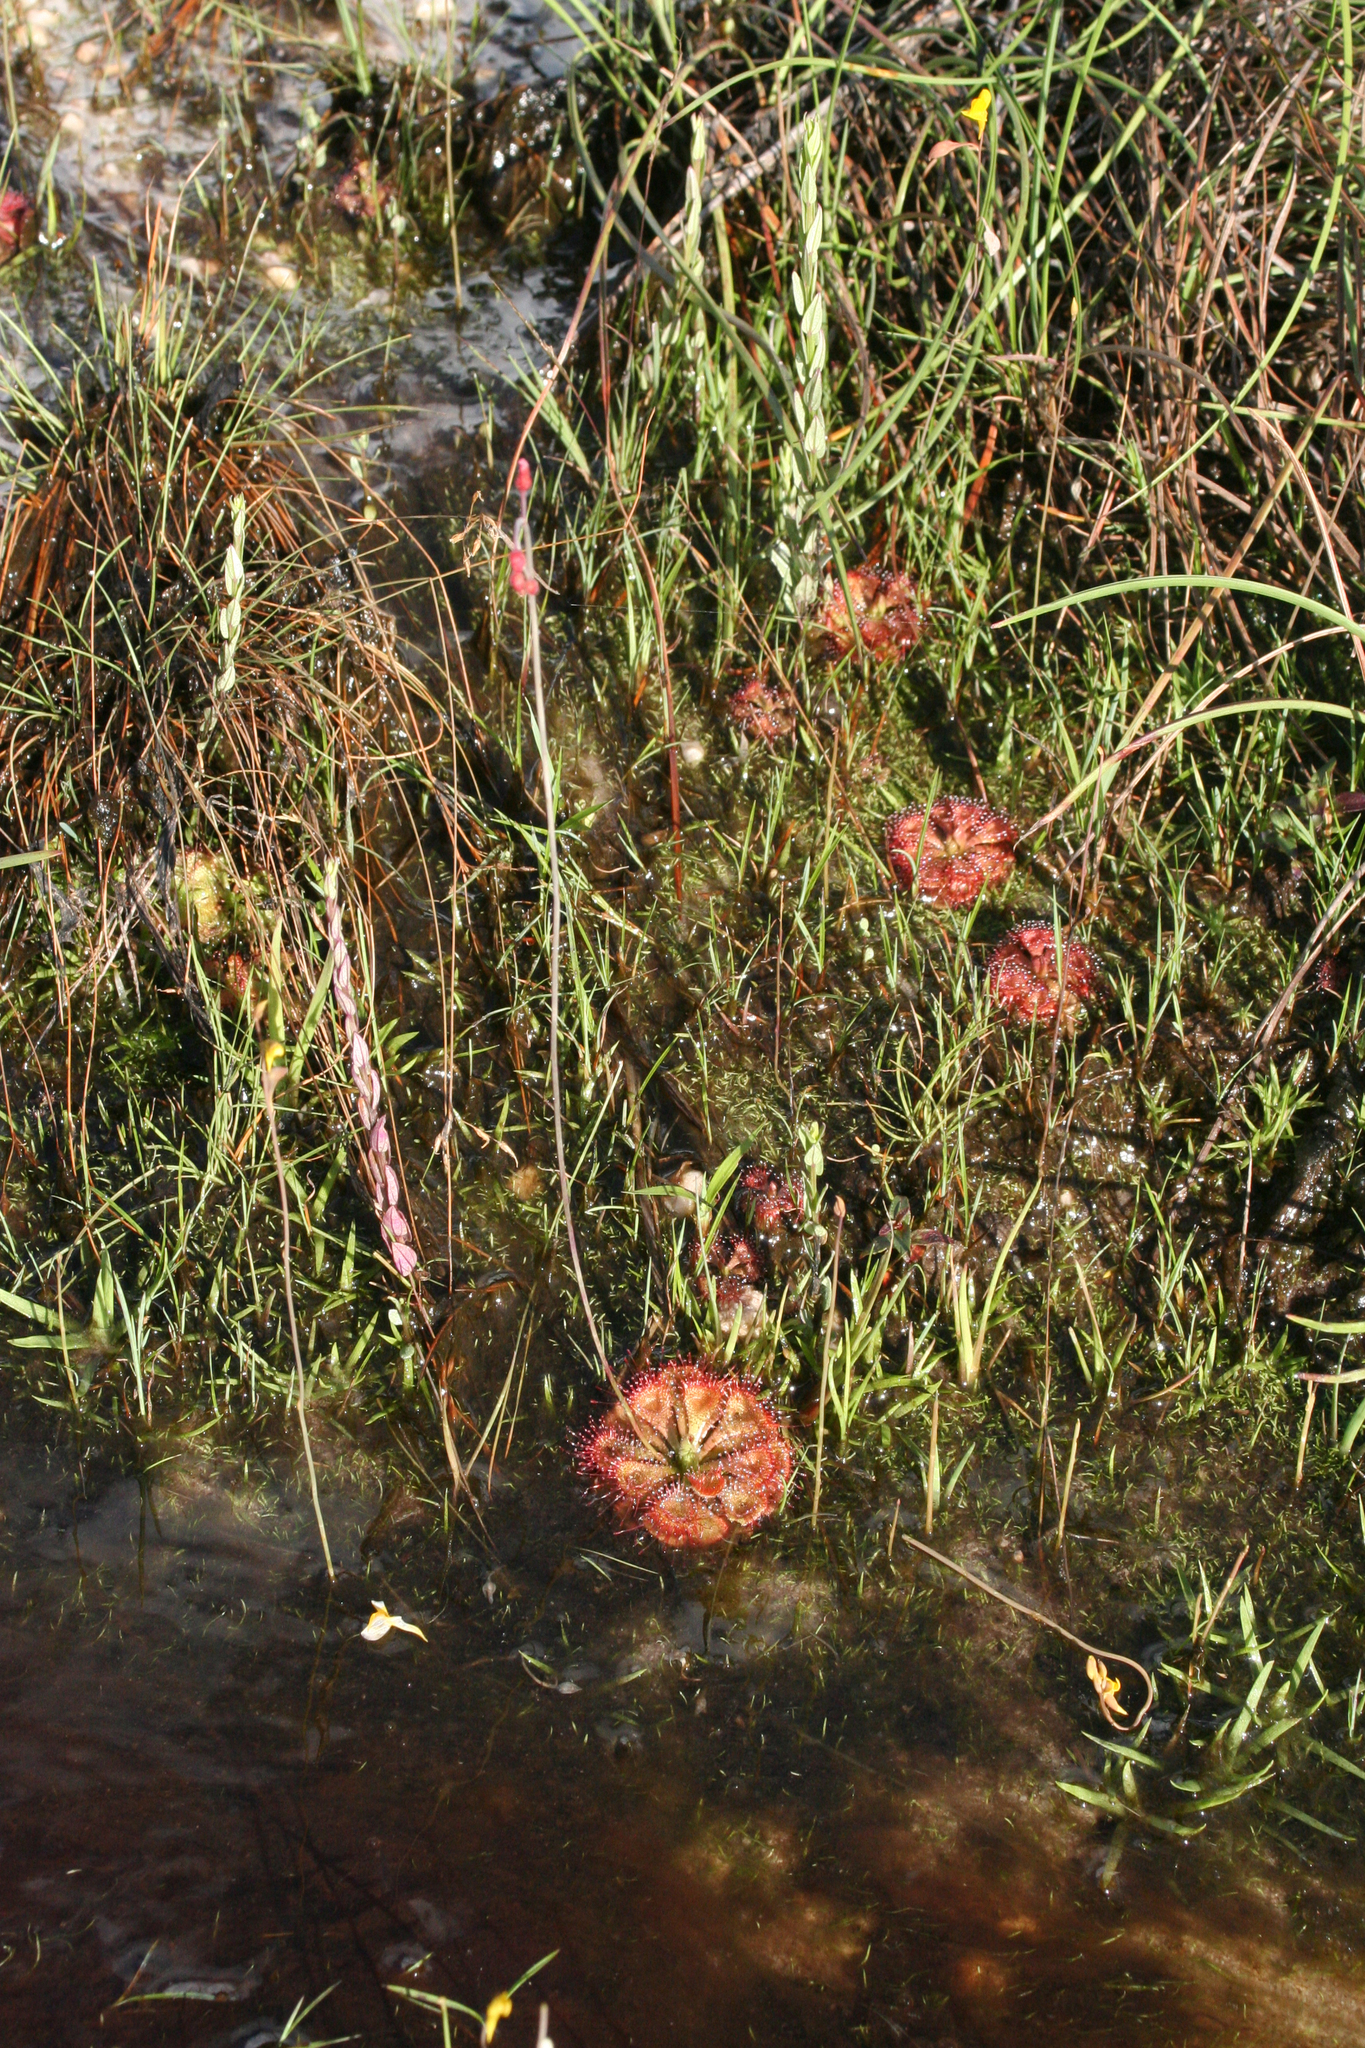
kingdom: Plantae
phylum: Tracheophyta
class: Magnoliopsida
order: Caryophyllales
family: Droseraceae
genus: Drosera
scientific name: Drosera spatulata
